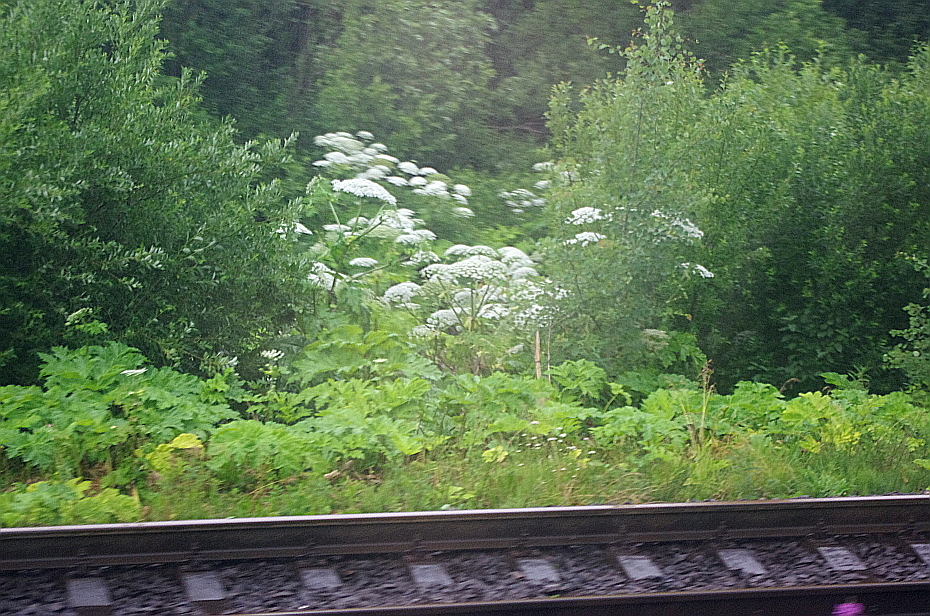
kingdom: Plantae
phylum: Tracheophyta
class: Magnoliopsida
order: Apiales
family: Apiaceae
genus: Heracleum
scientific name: Heracleum sosnowskyi
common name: Sosnowsky's hogweed
